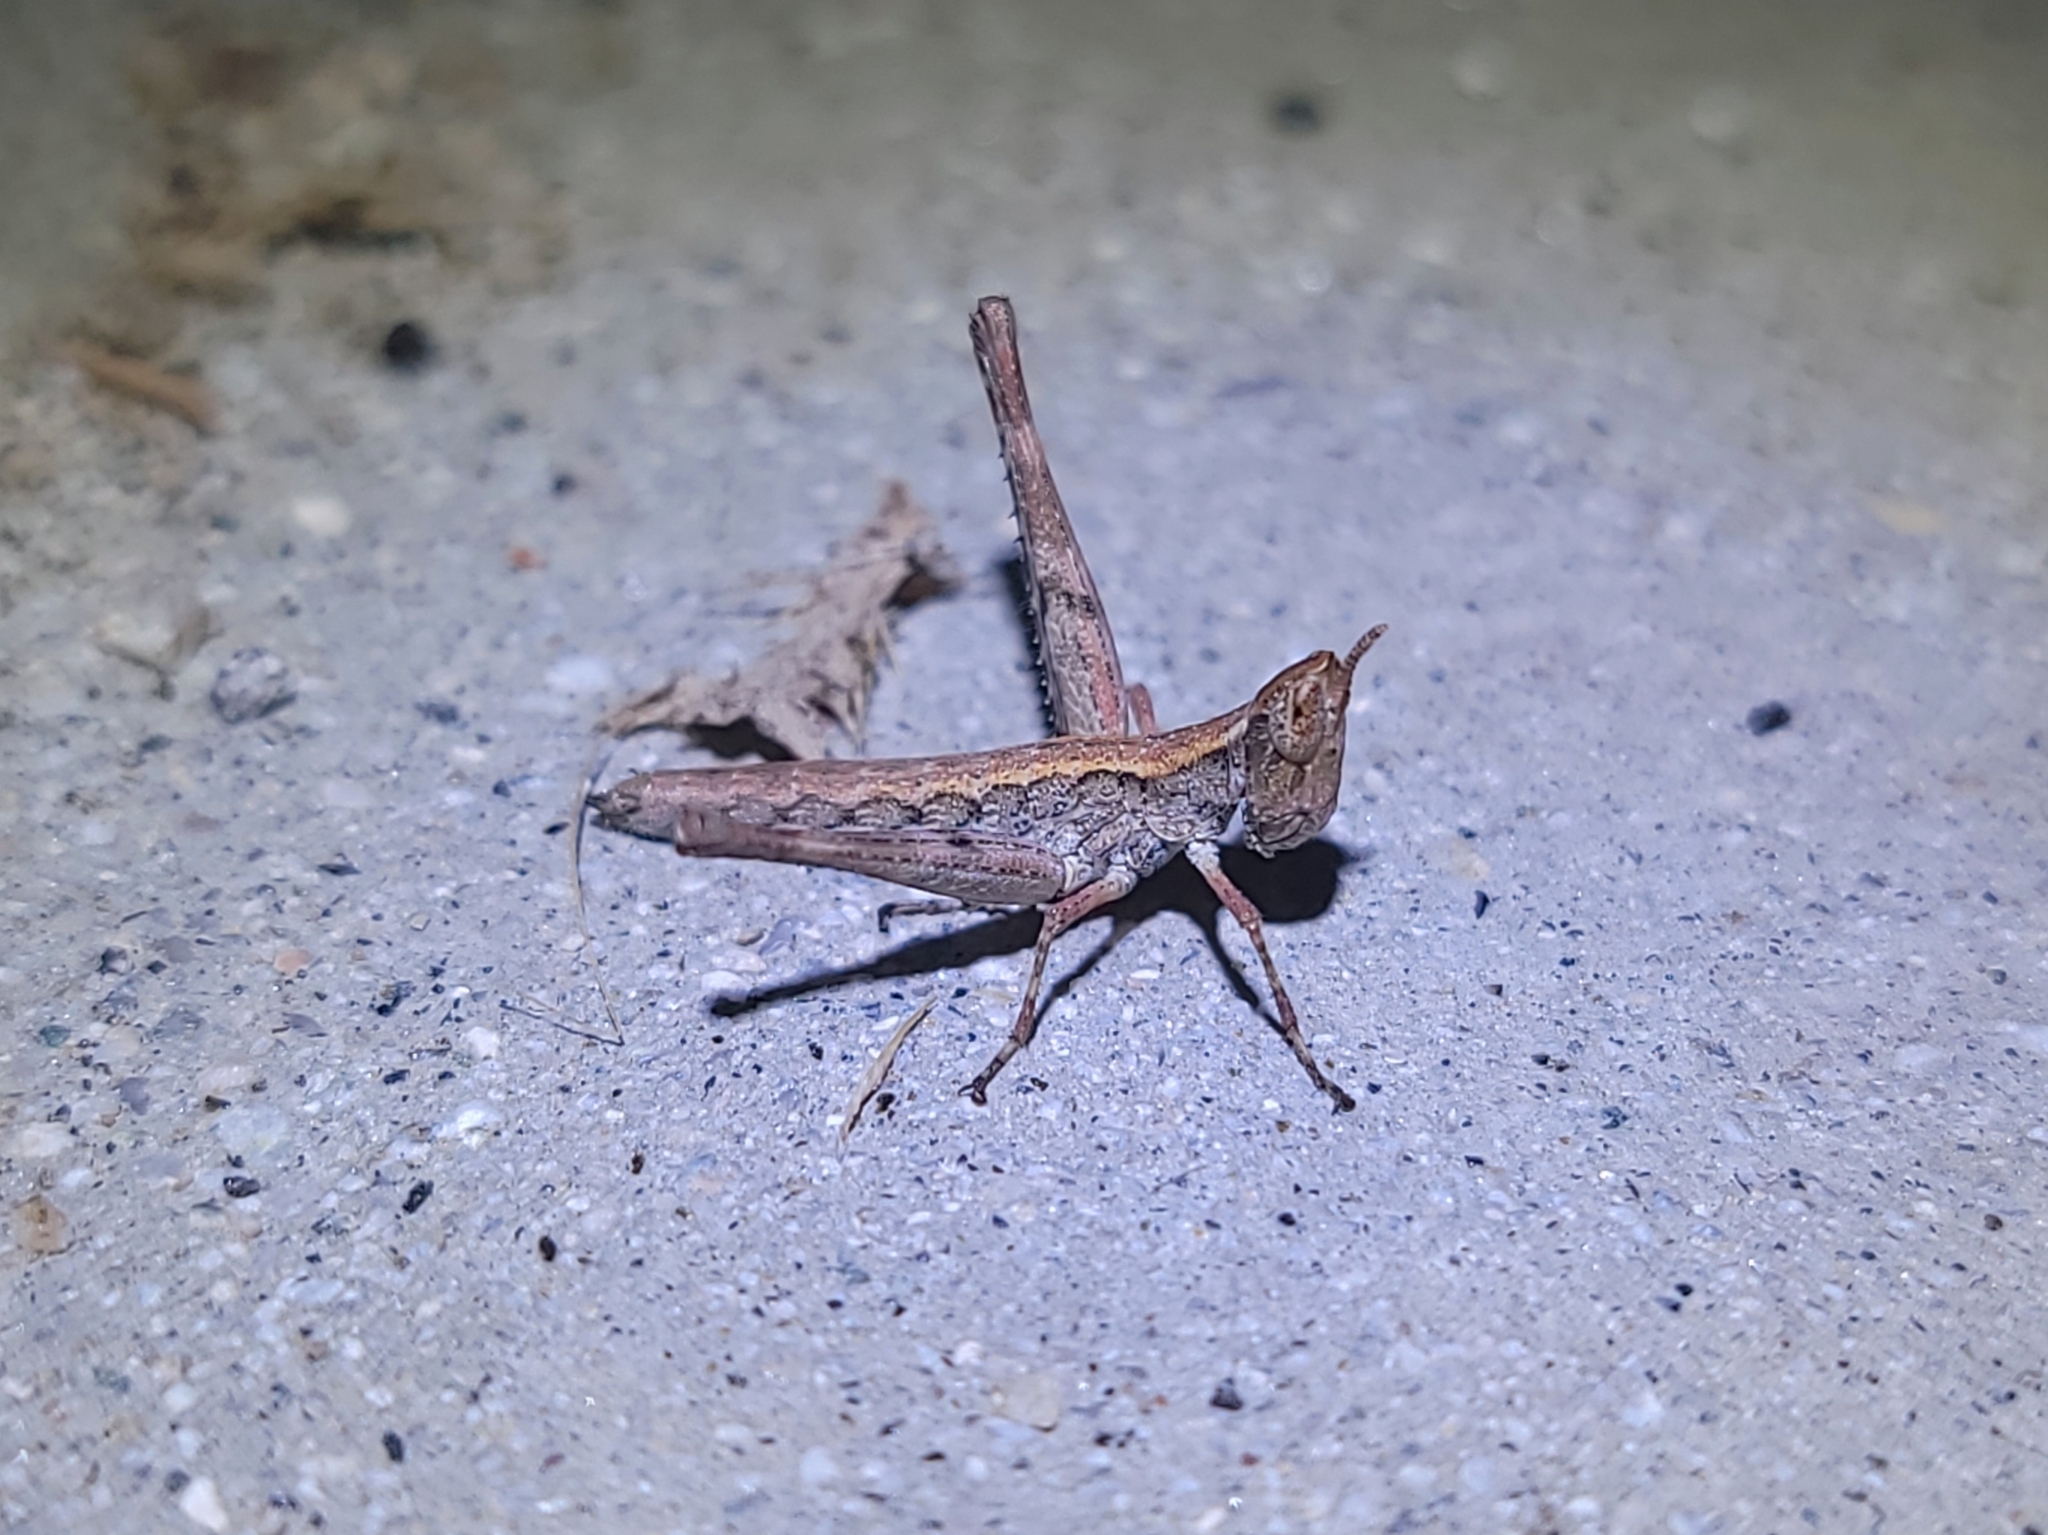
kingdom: Animalia
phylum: Arthropoda
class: Insecta
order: Orthoptera
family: Eumastacidae
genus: Morsea
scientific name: Morsea californica
